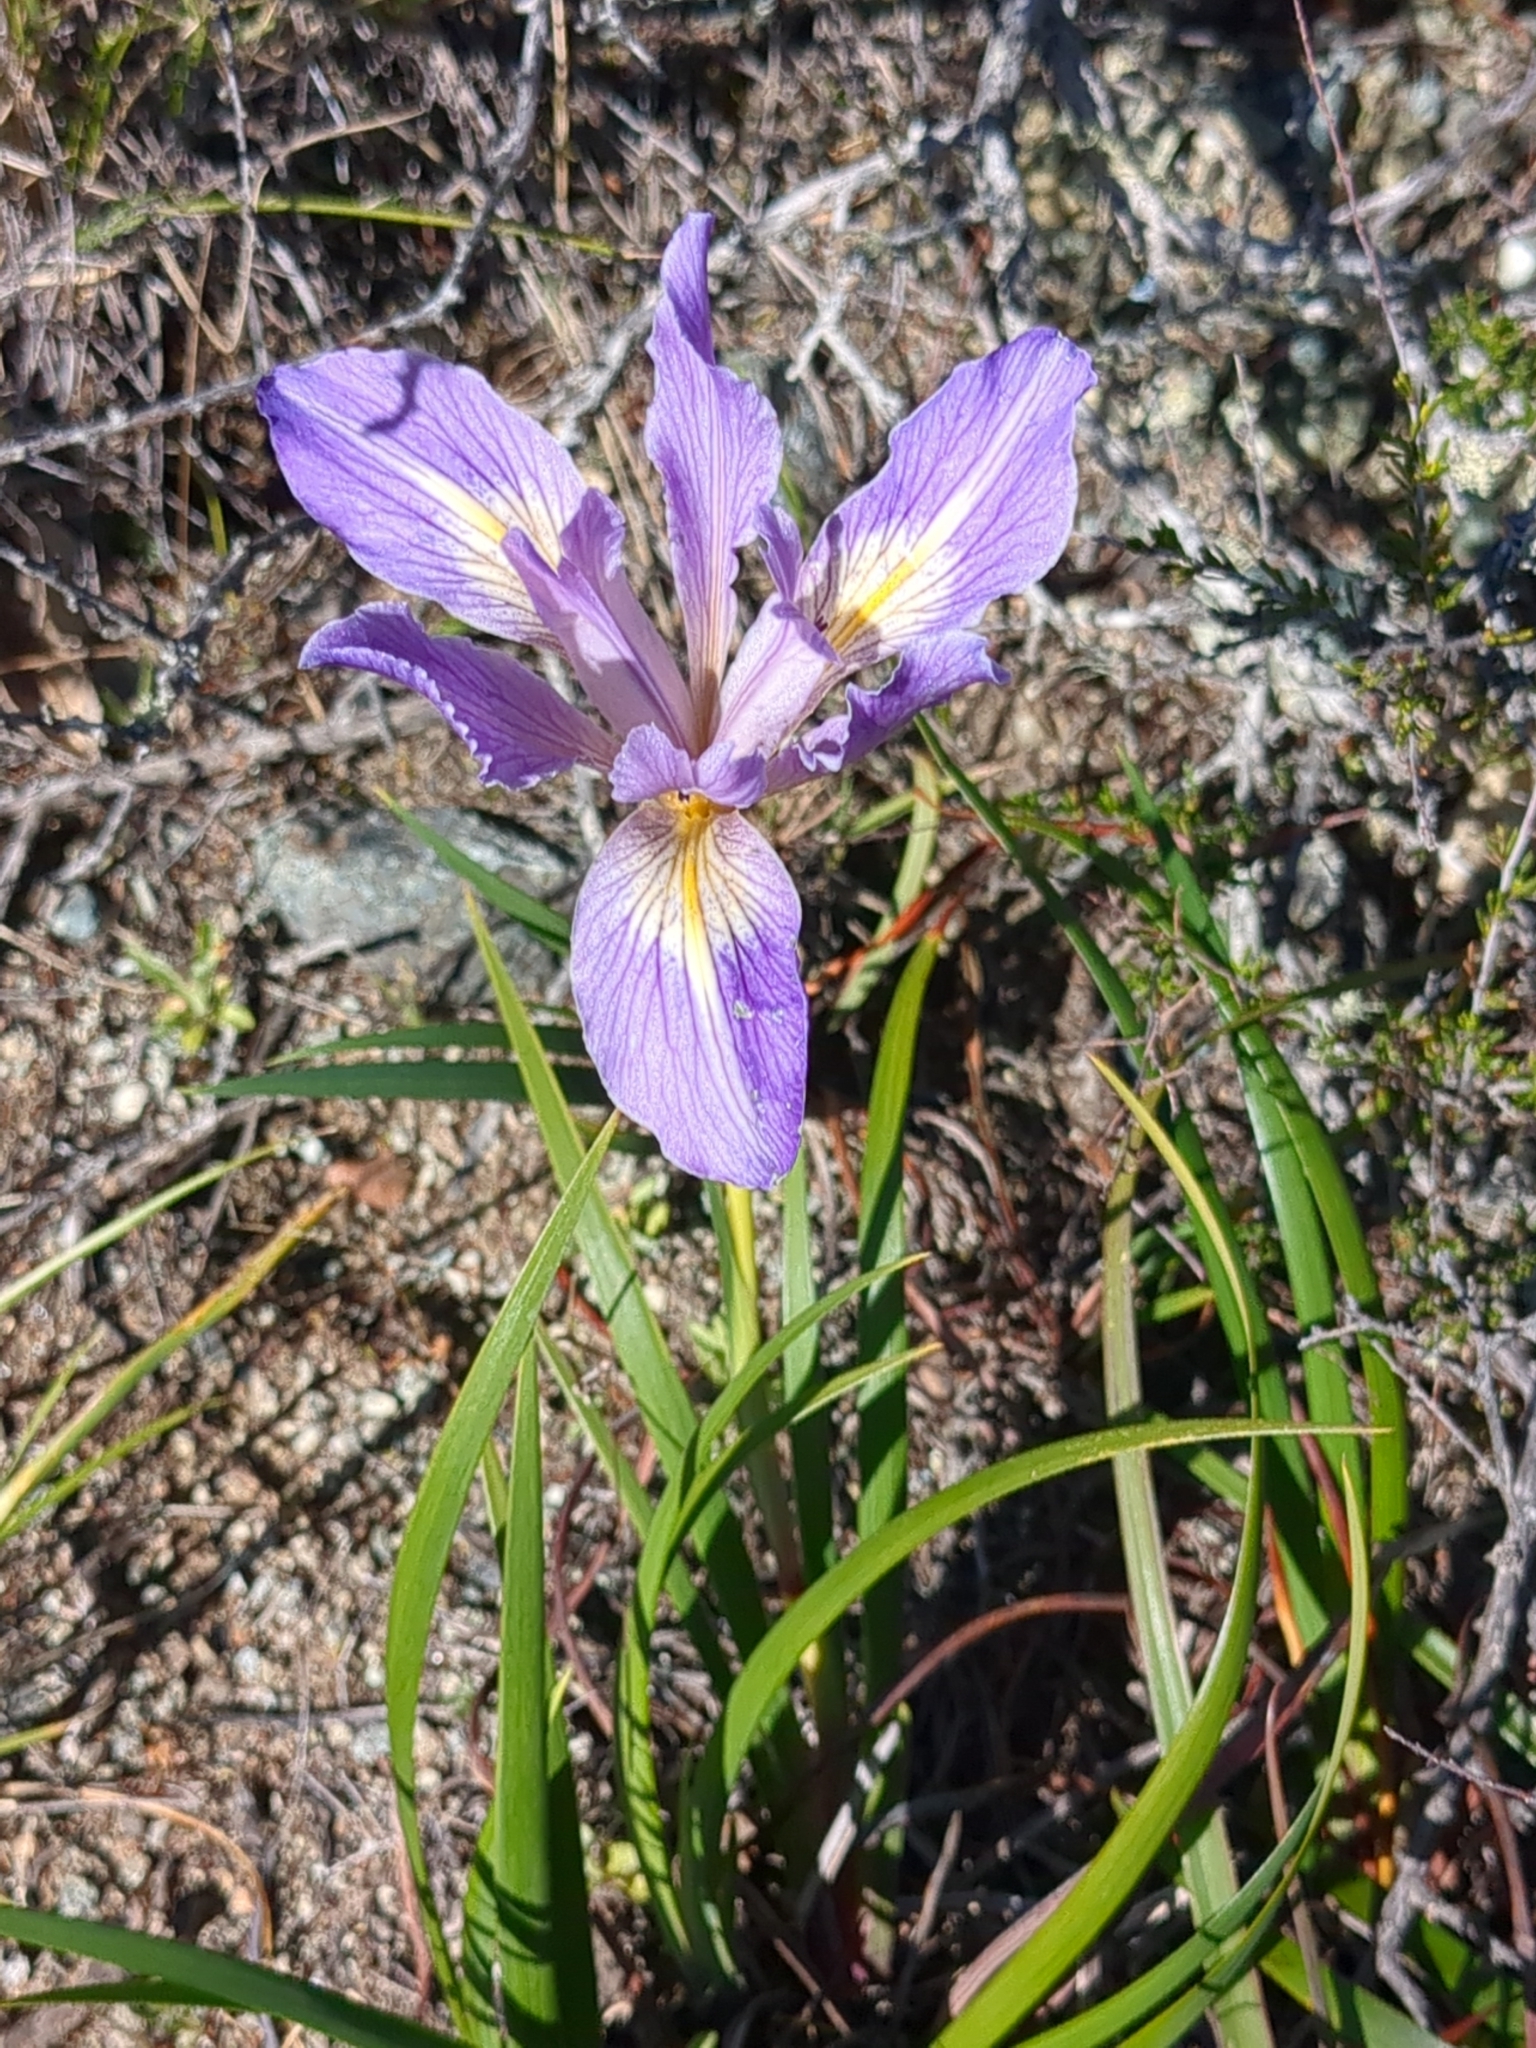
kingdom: Plantae
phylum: Tracheophyta
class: Liliopsida
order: Asparagales
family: Iridaceae
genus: Iris
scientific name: Iris douglasiana
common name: Marin iris
